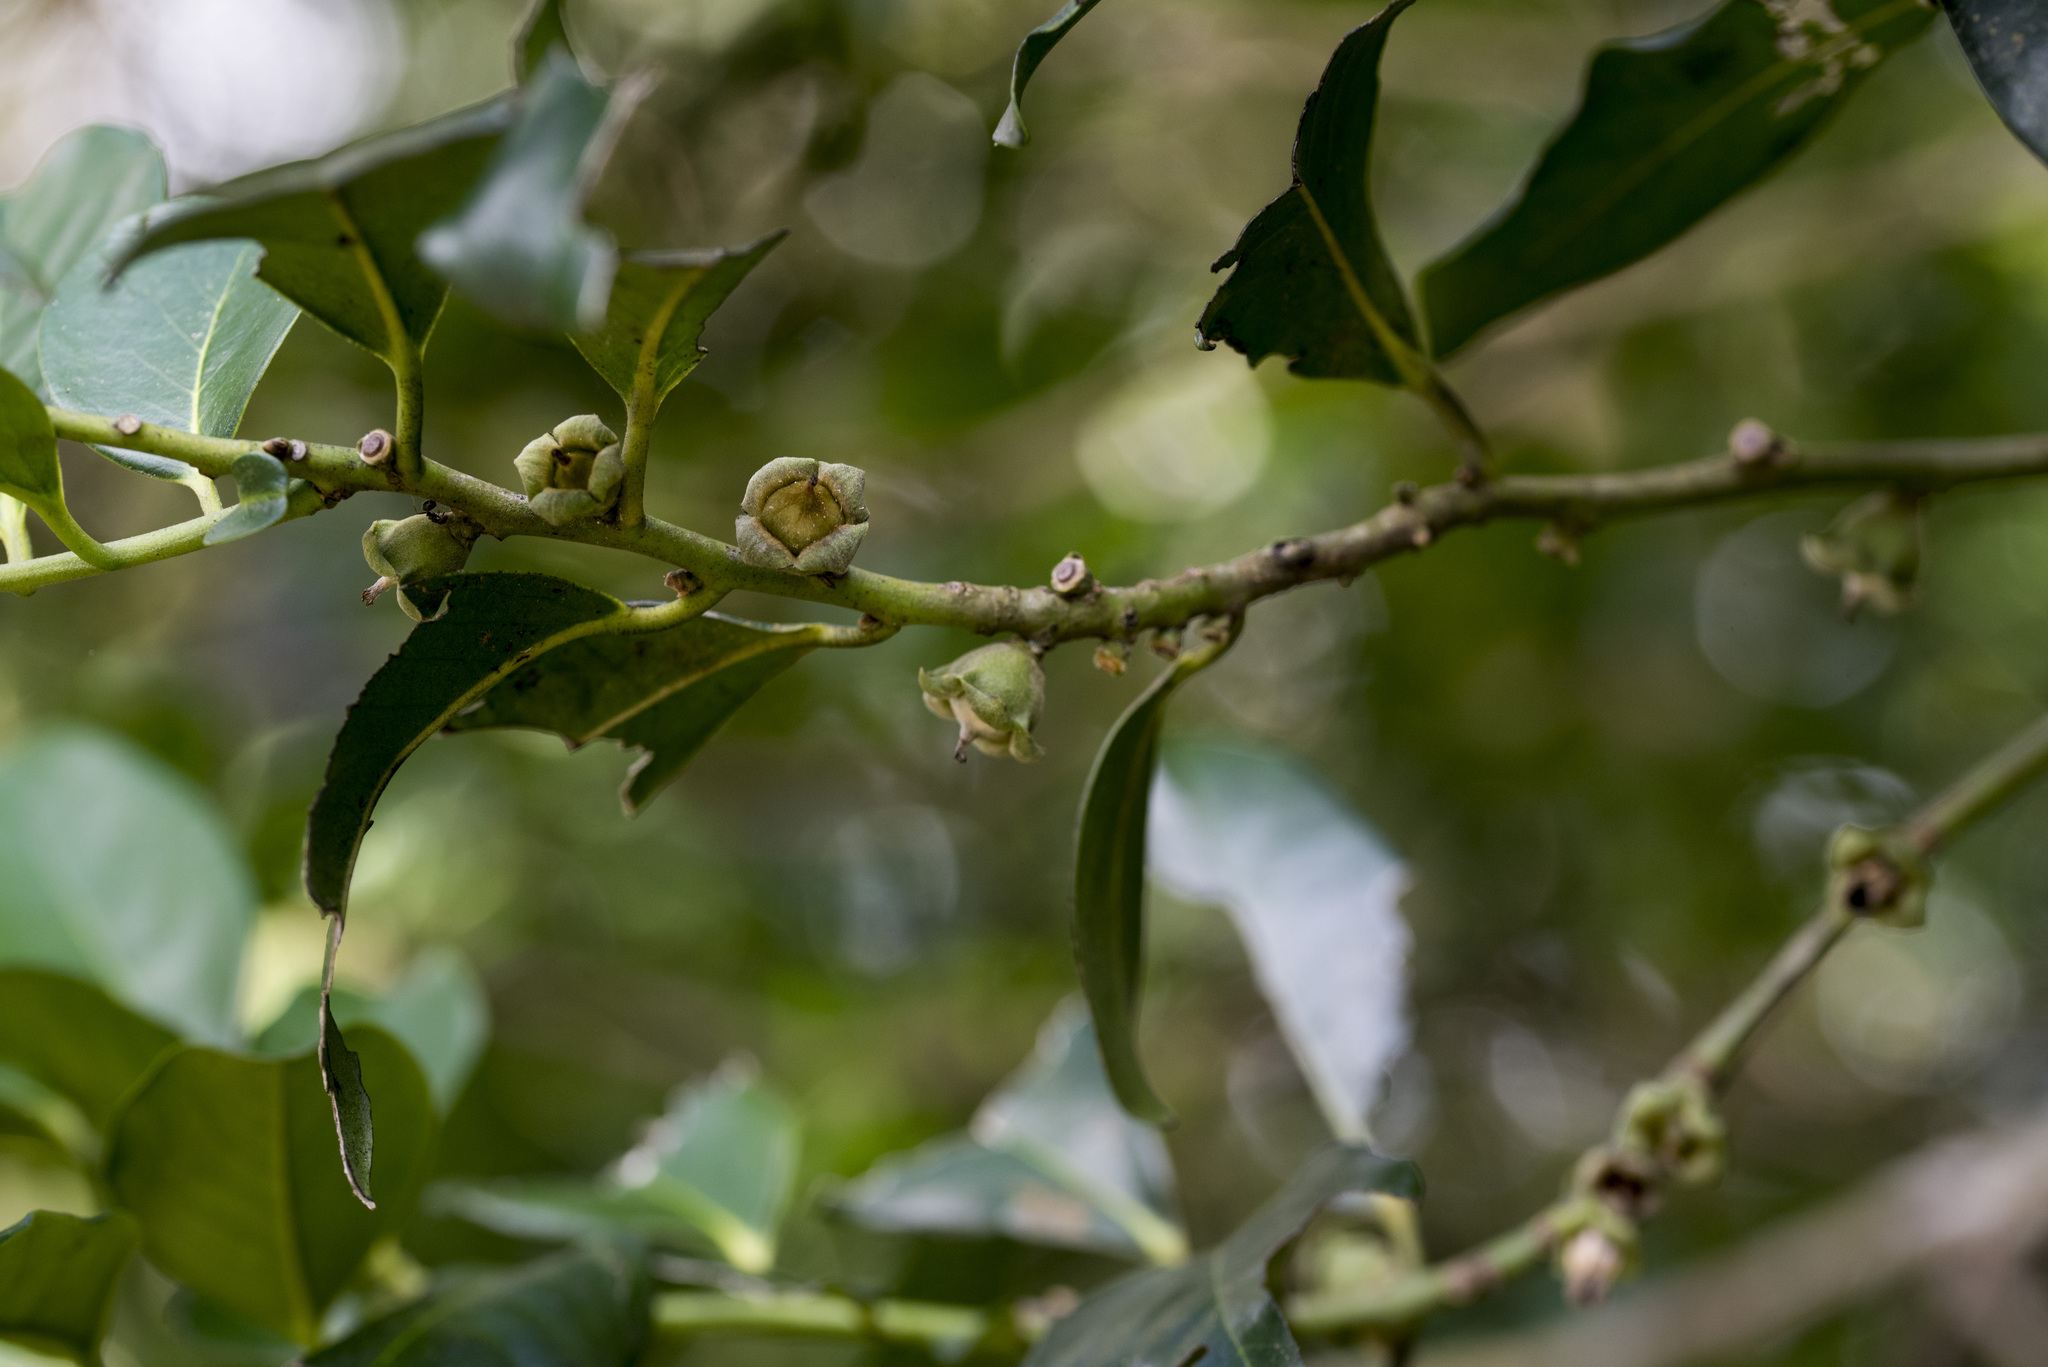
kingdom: Plantae
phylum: Tracheophyta
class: Magnoliopsida
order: Ericales
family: Ebenaceae
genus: Diospyros
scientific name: Diospyros maritima
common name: Malaysian persimmon
